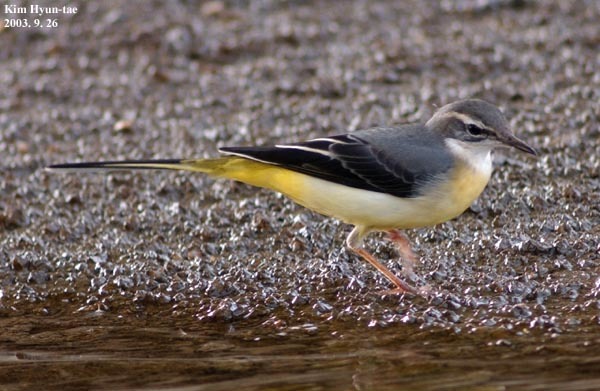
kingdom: Animalia
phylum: Chordata
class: Aves
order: Passeriformes
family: Motacillidae
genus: Motacilla
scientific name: Motacilla cinerea
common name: Grey wagtail
